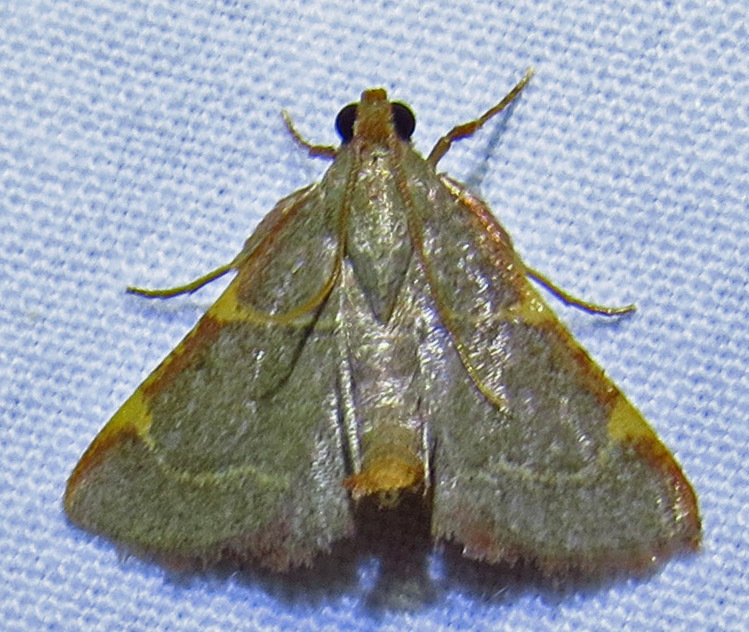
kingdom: Animalia
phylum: Arthropoda
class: Insecta
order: Lepidoptera
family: Pyralidae
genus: Hypsopygia
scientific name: Hypsopygia binodulalis
